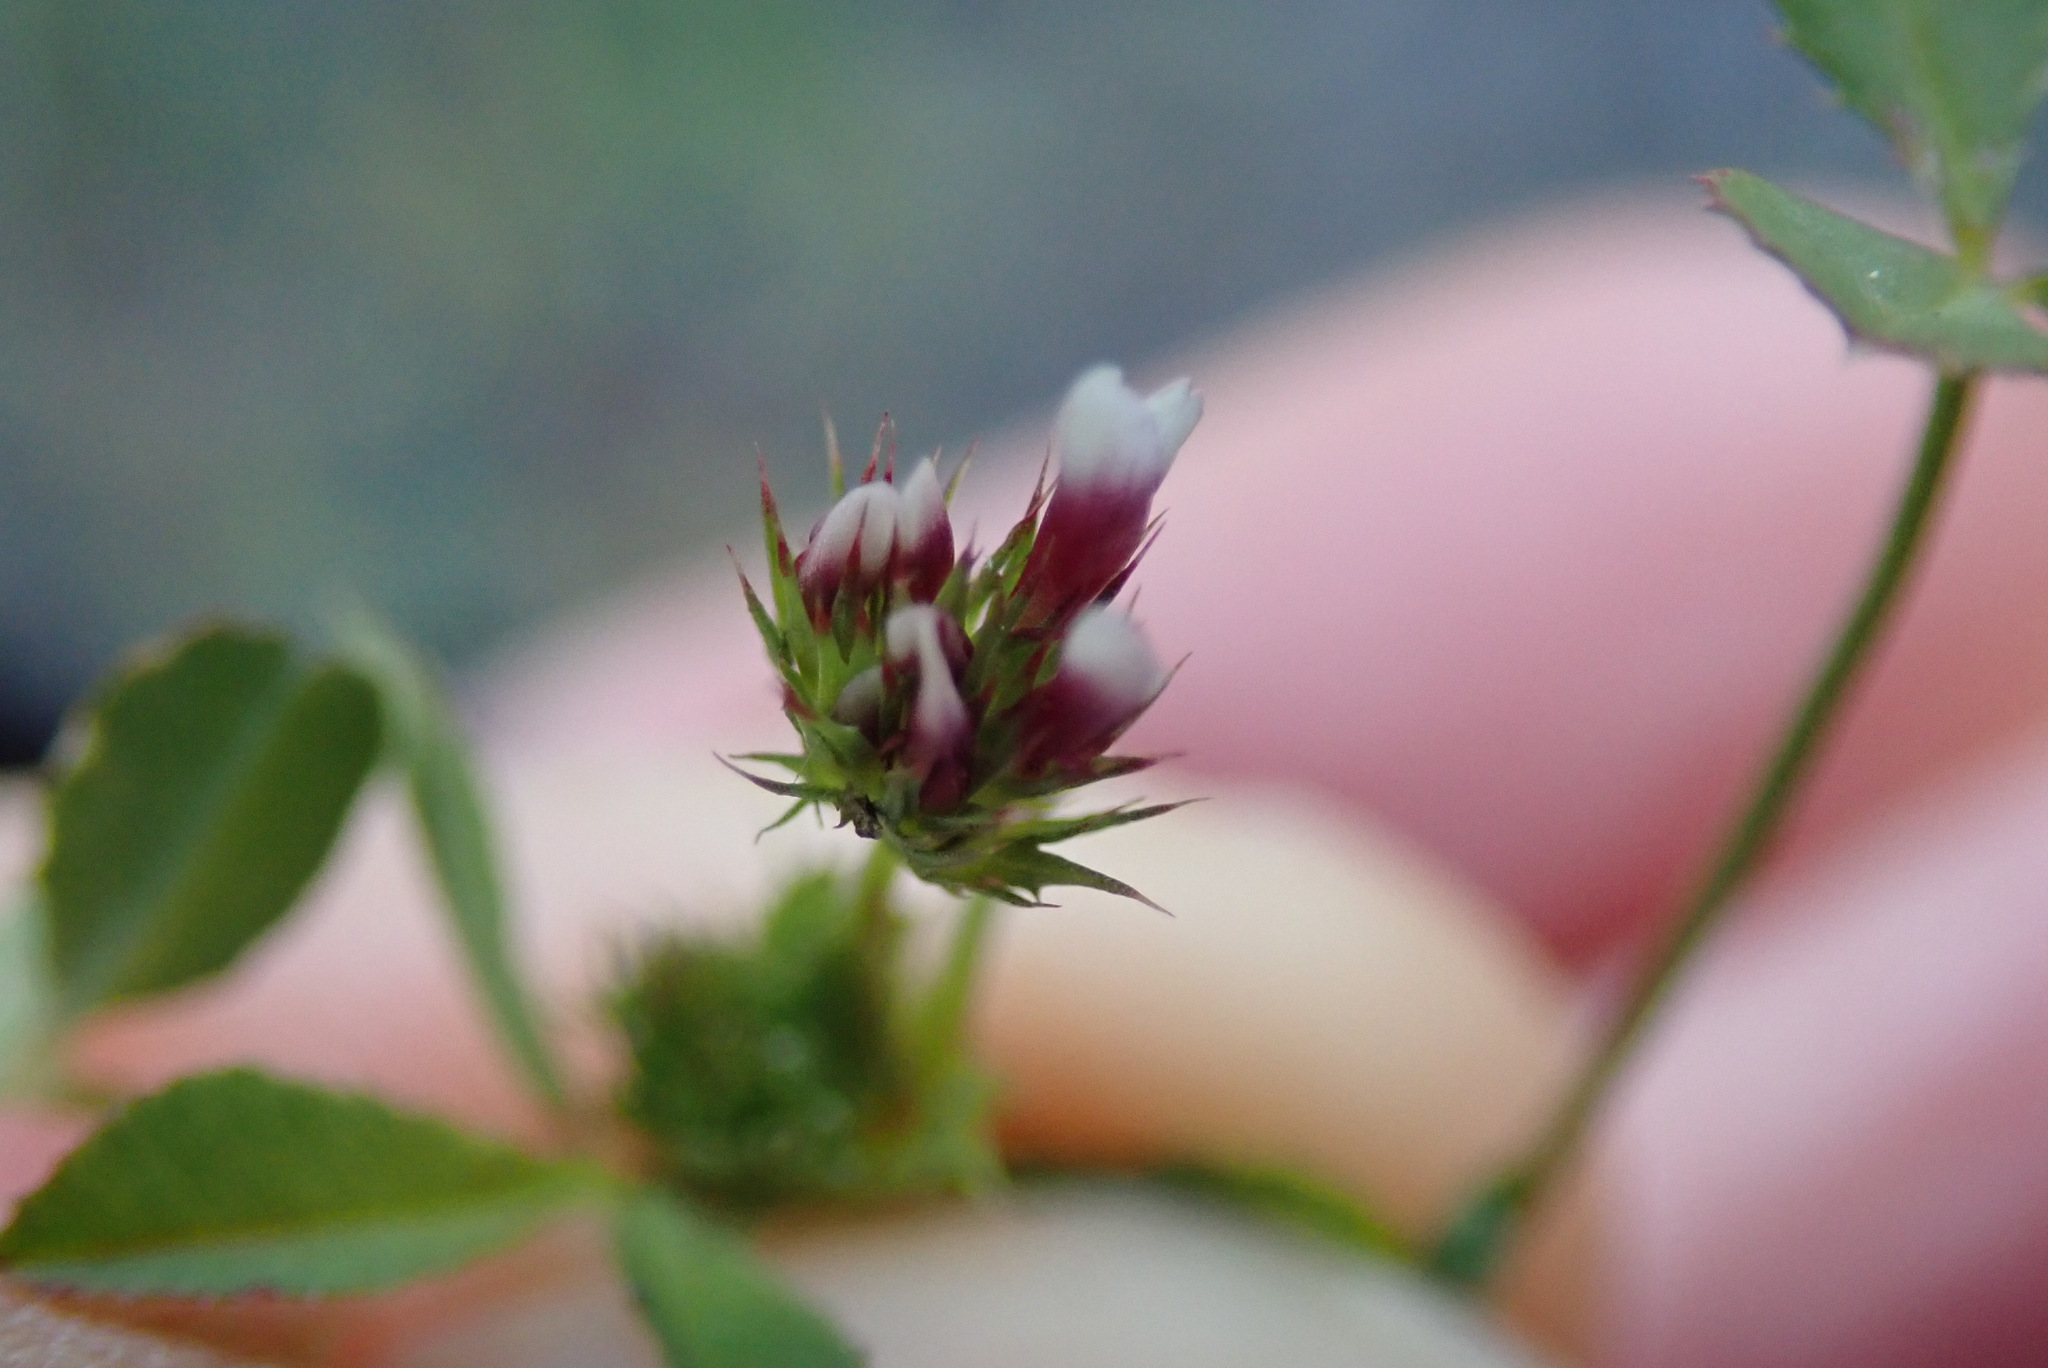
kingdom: Plantae
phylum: Tracheophyta
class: Magnoliopsida
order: Fabales
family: Fabaceae
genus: Trifolium
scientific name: Trifolium variegatum
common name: Whitetip clover
